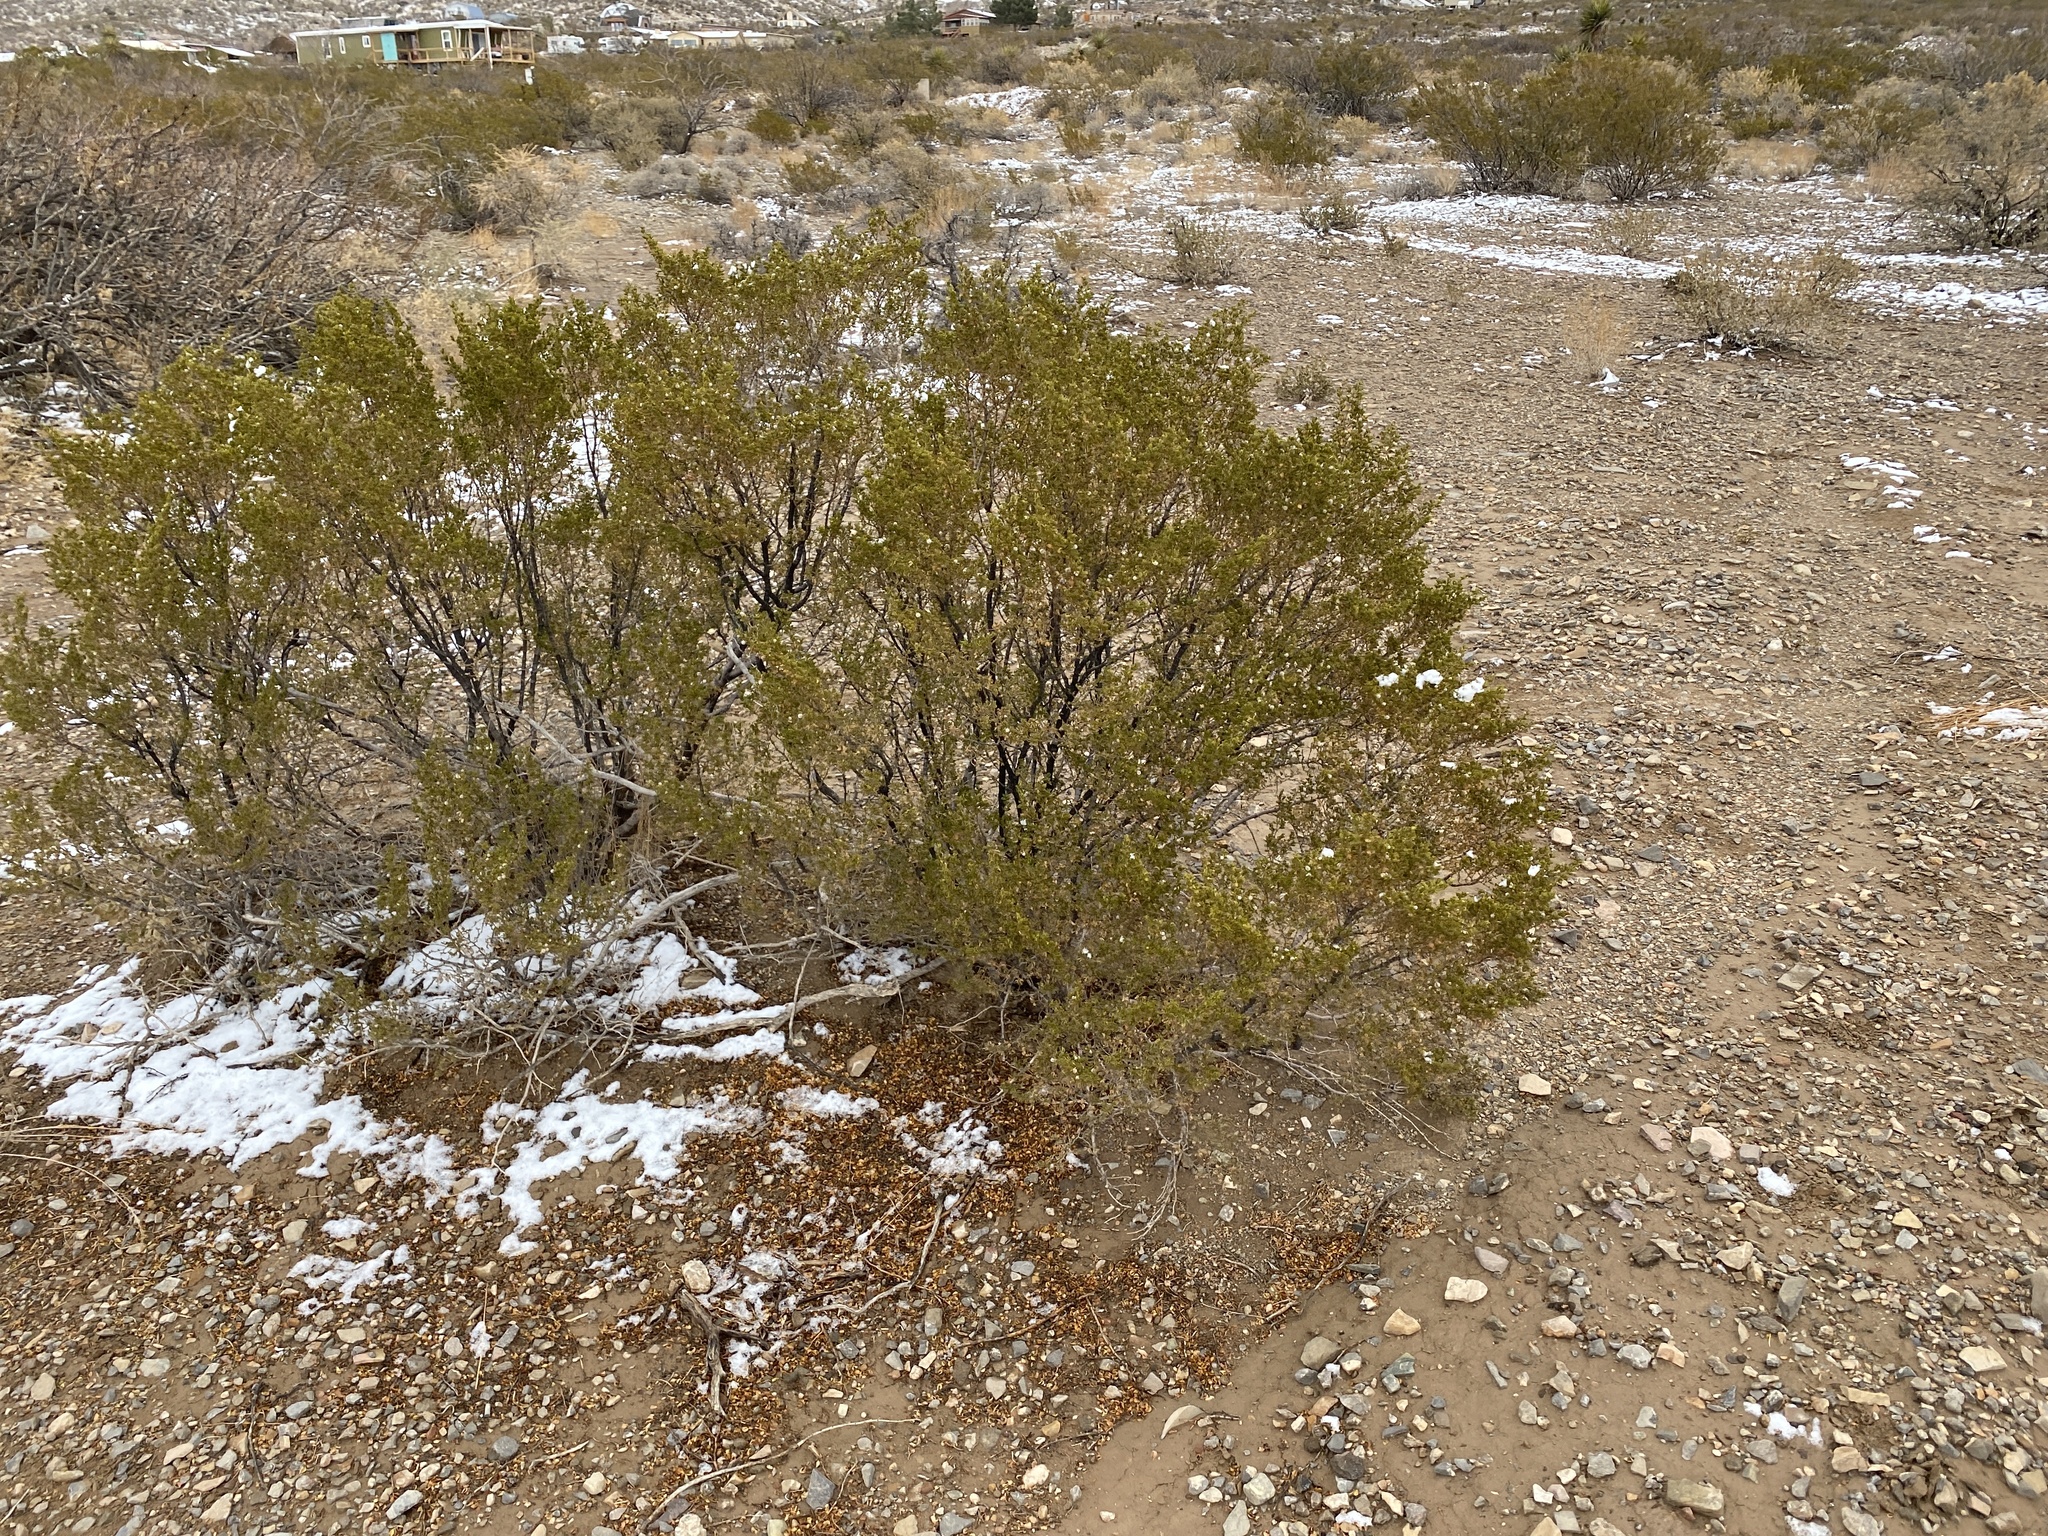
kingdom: Plantae
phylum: Tracheophyta
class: Magnoliopsida
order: Zygophyllales
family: Zygophyllaceae
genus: Larrea
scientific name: Larrea tridentata
